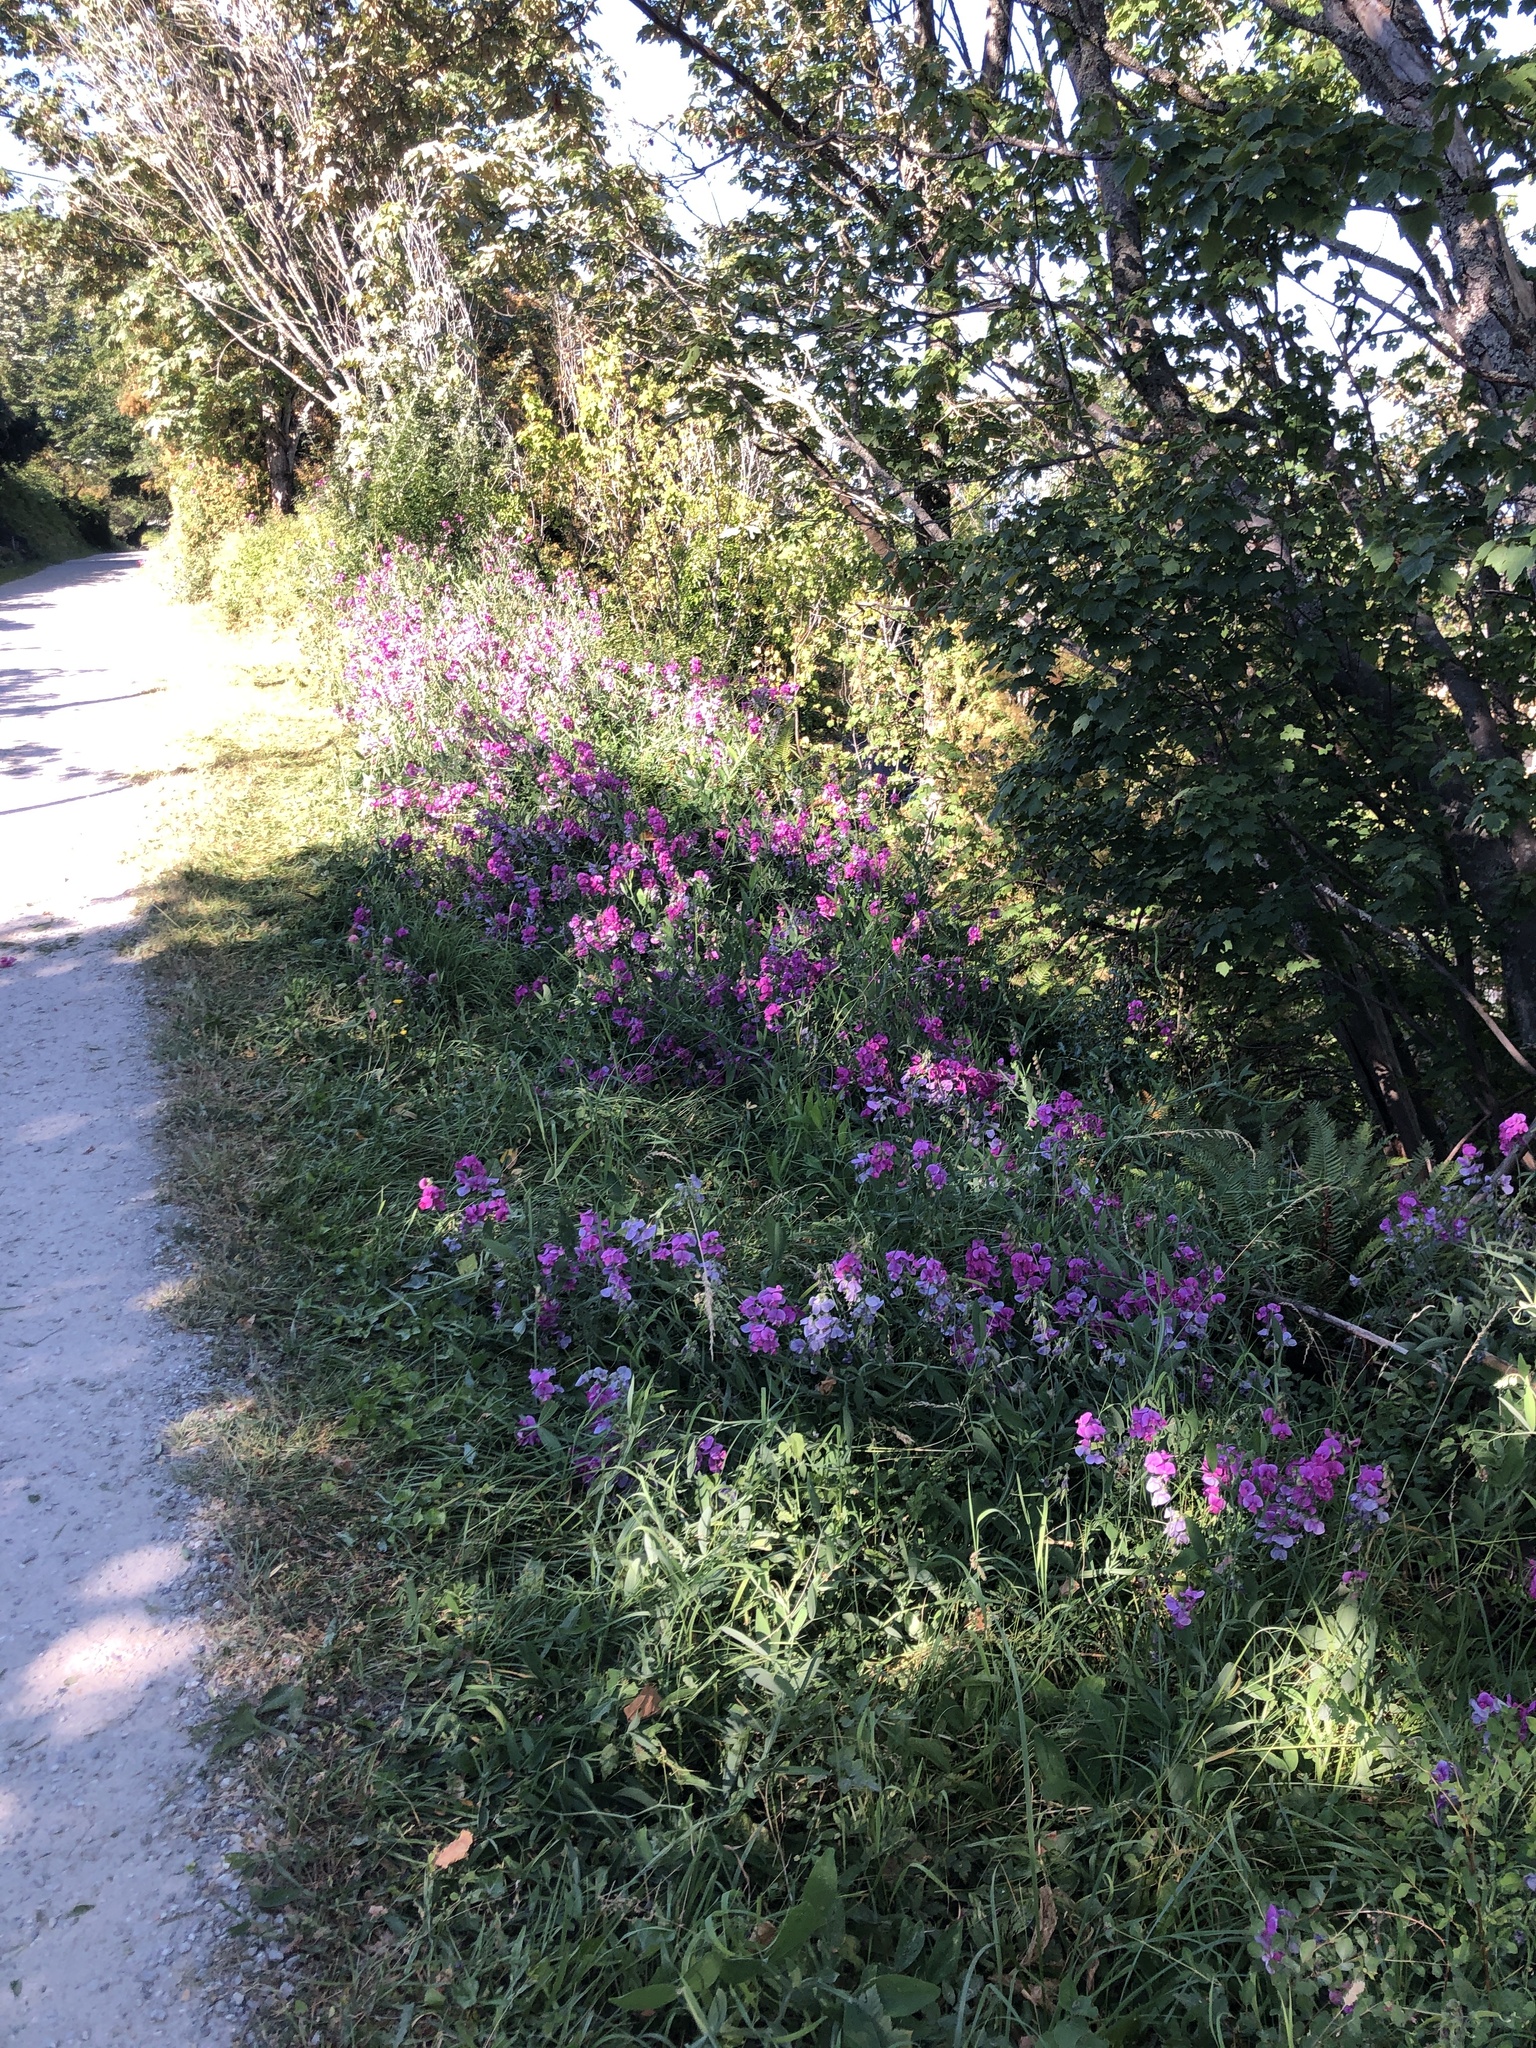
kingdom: Plantae
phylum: Tracheophyta
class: Magnoliopsida
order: Fabales
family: Fabaceae
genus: Lathyrus
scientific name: Lathyrus latifolius
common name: Perennial pea
